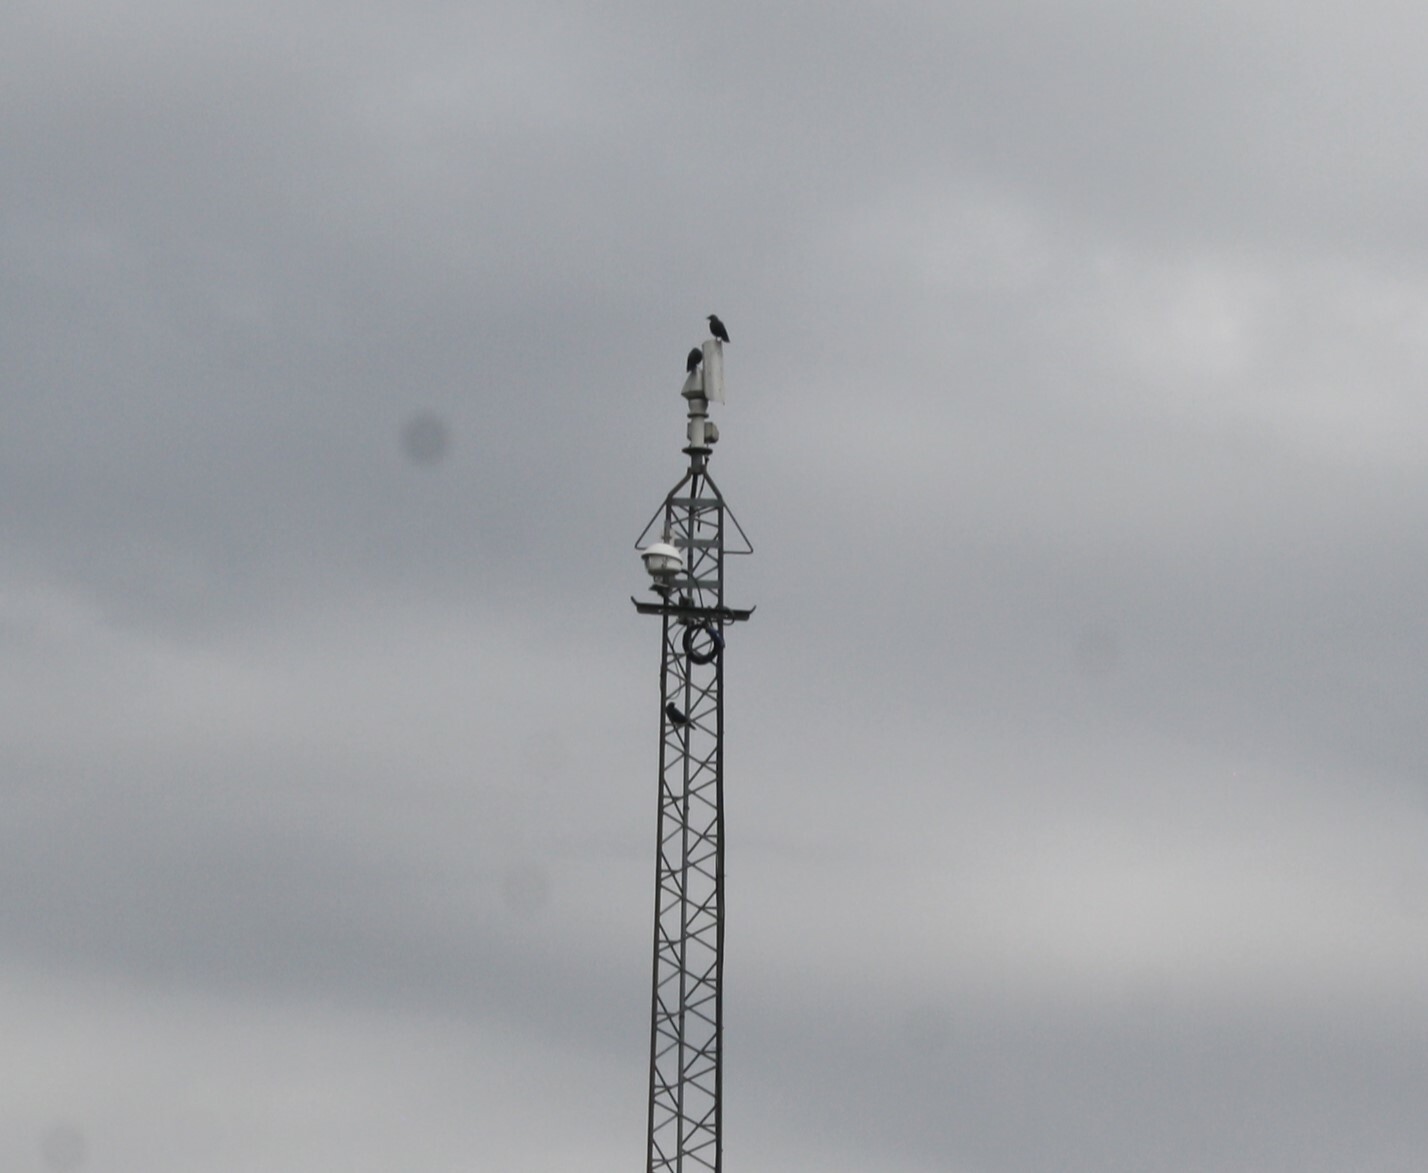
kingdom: Animalia
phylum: Chordata
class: Aves
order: Passeriformes
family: Corvidae
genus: Coloeus
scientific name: Coloeus monedula
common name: Western jackdaw
